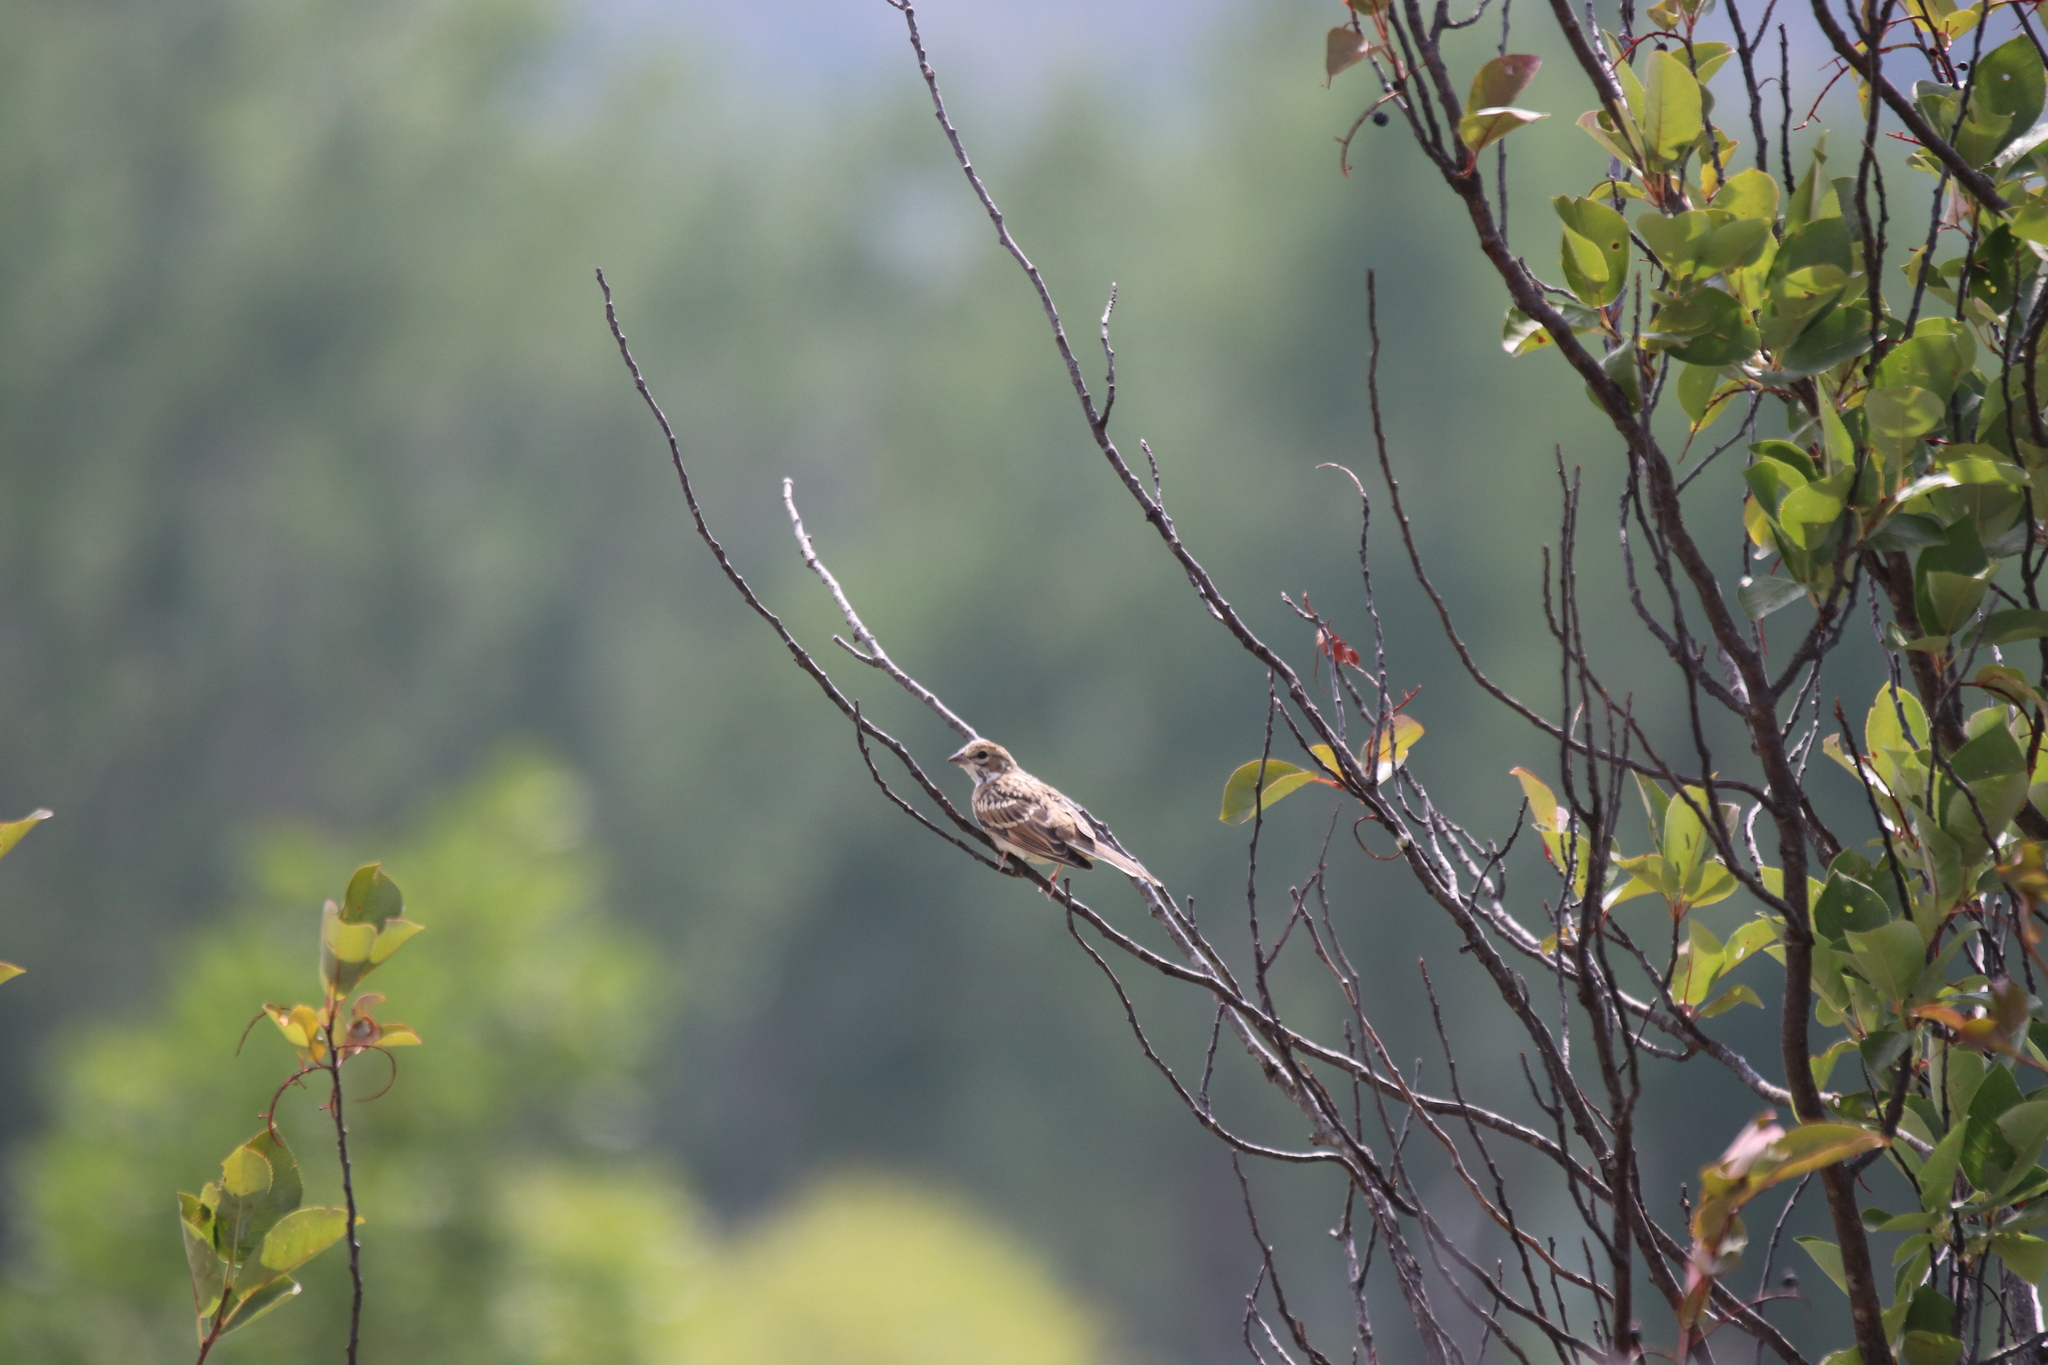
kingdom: Animalia
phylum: Chordata
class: Aves
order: Passeriformes
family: Passerellidae
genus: Chondestes
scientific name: Chondestes grammacus
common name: Lark sparrow
